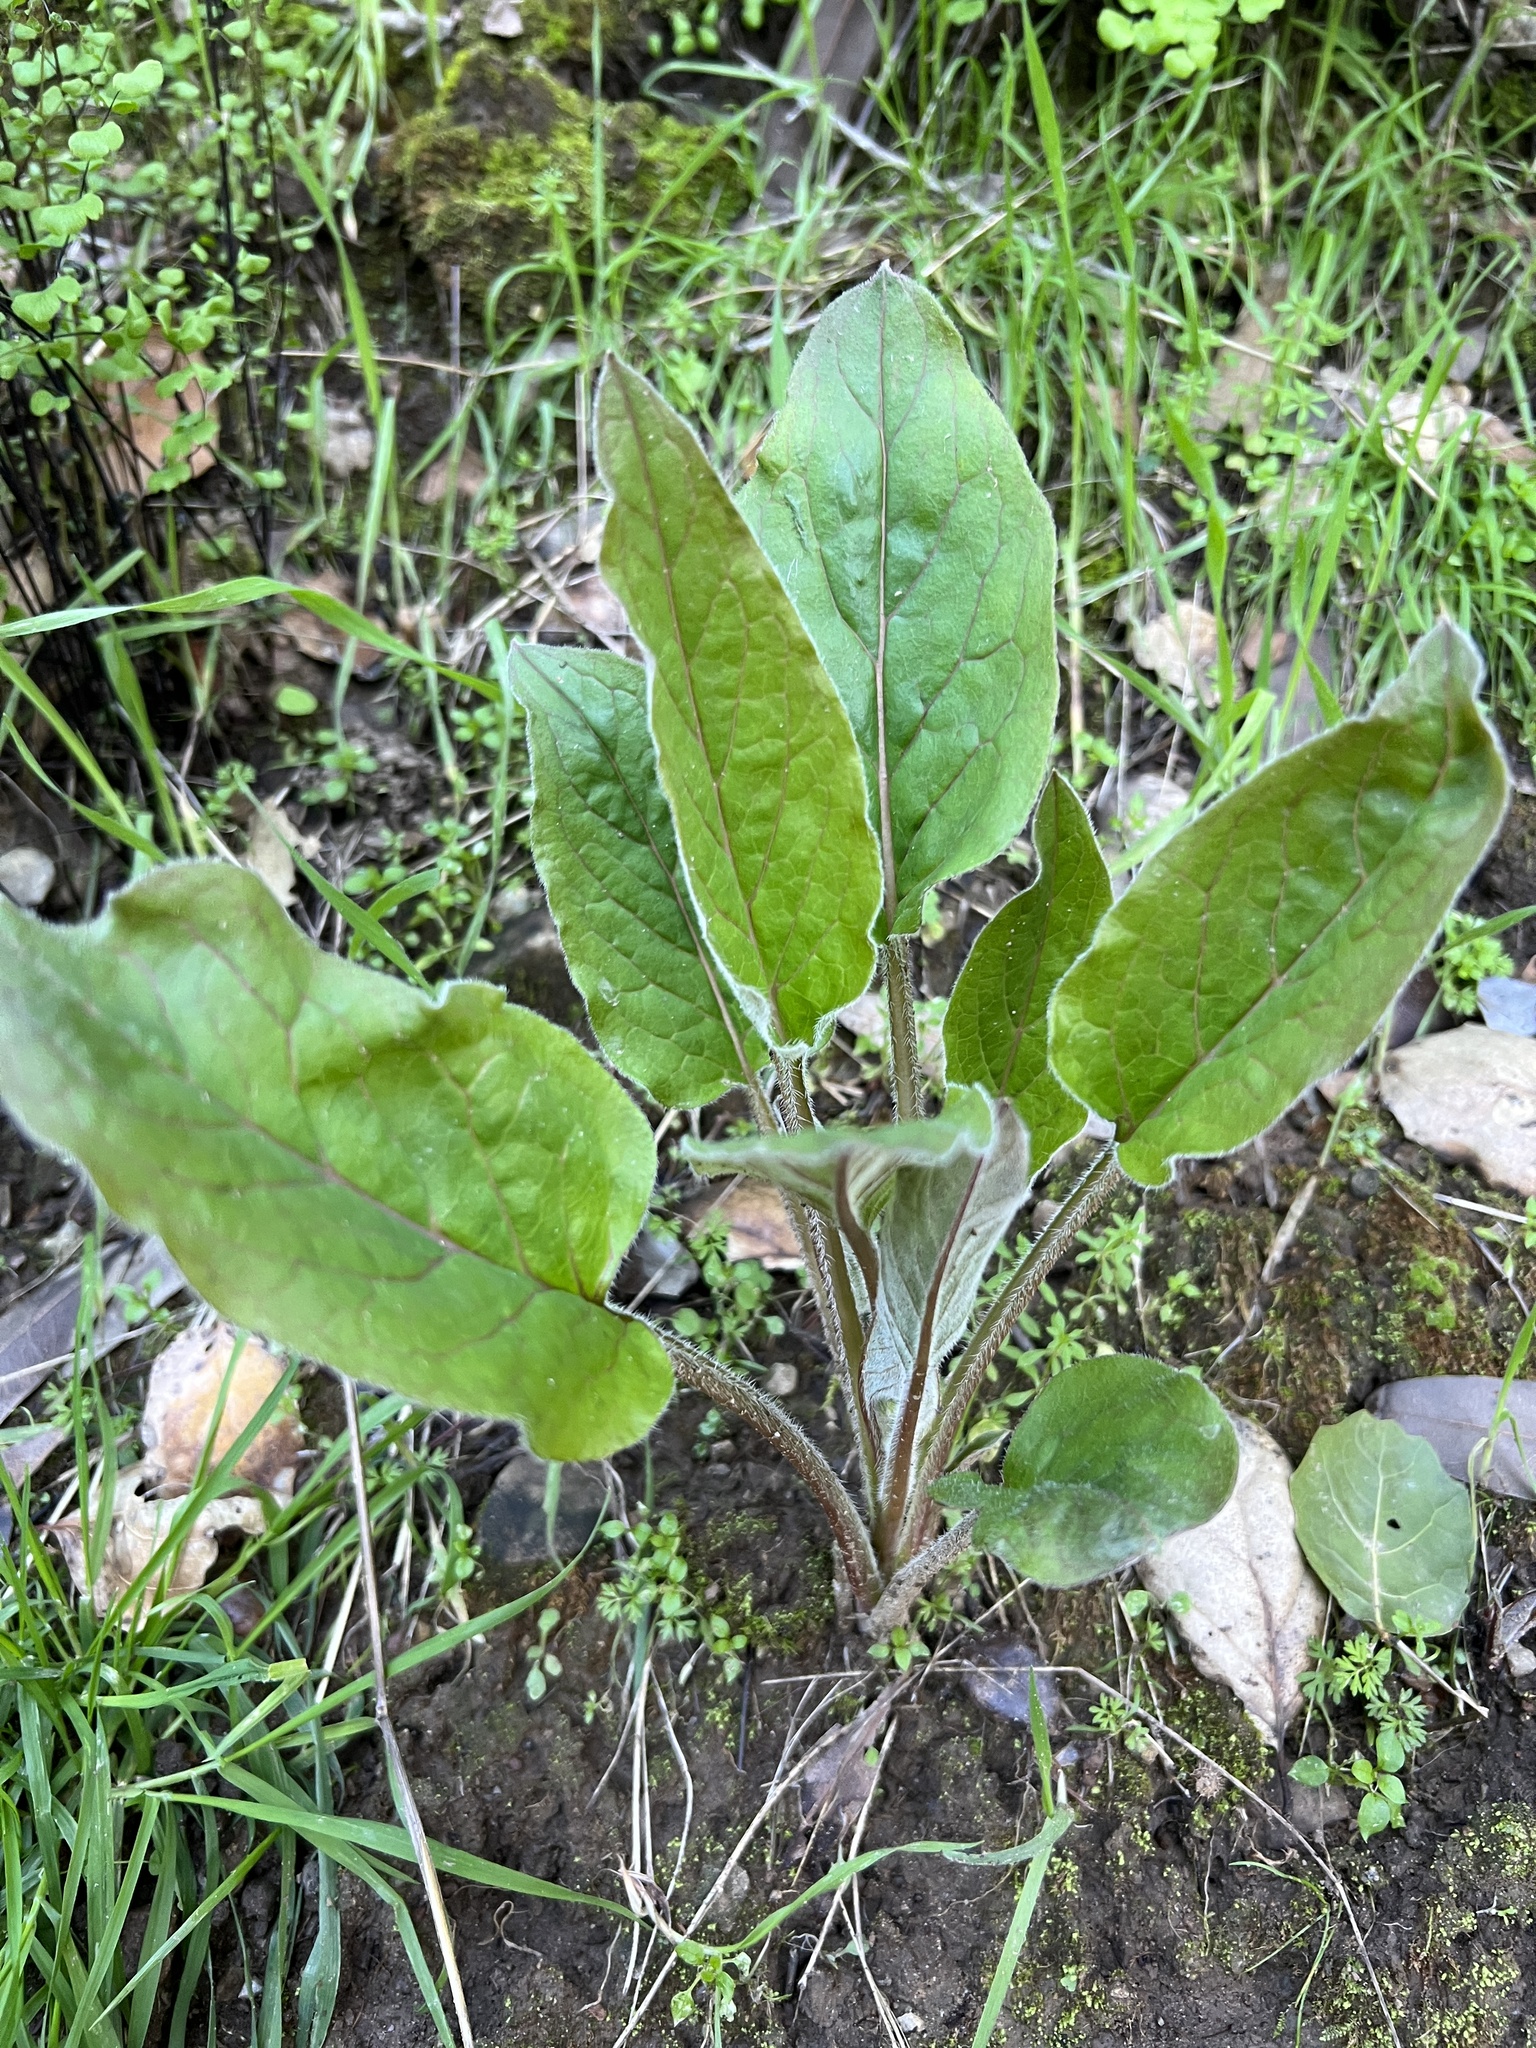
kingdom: Plantae
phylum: Tracheophyta
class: Magnoliopsida
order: Boraginales
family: Boraginaceae
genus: Adelinia
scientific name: Adelinia grande
